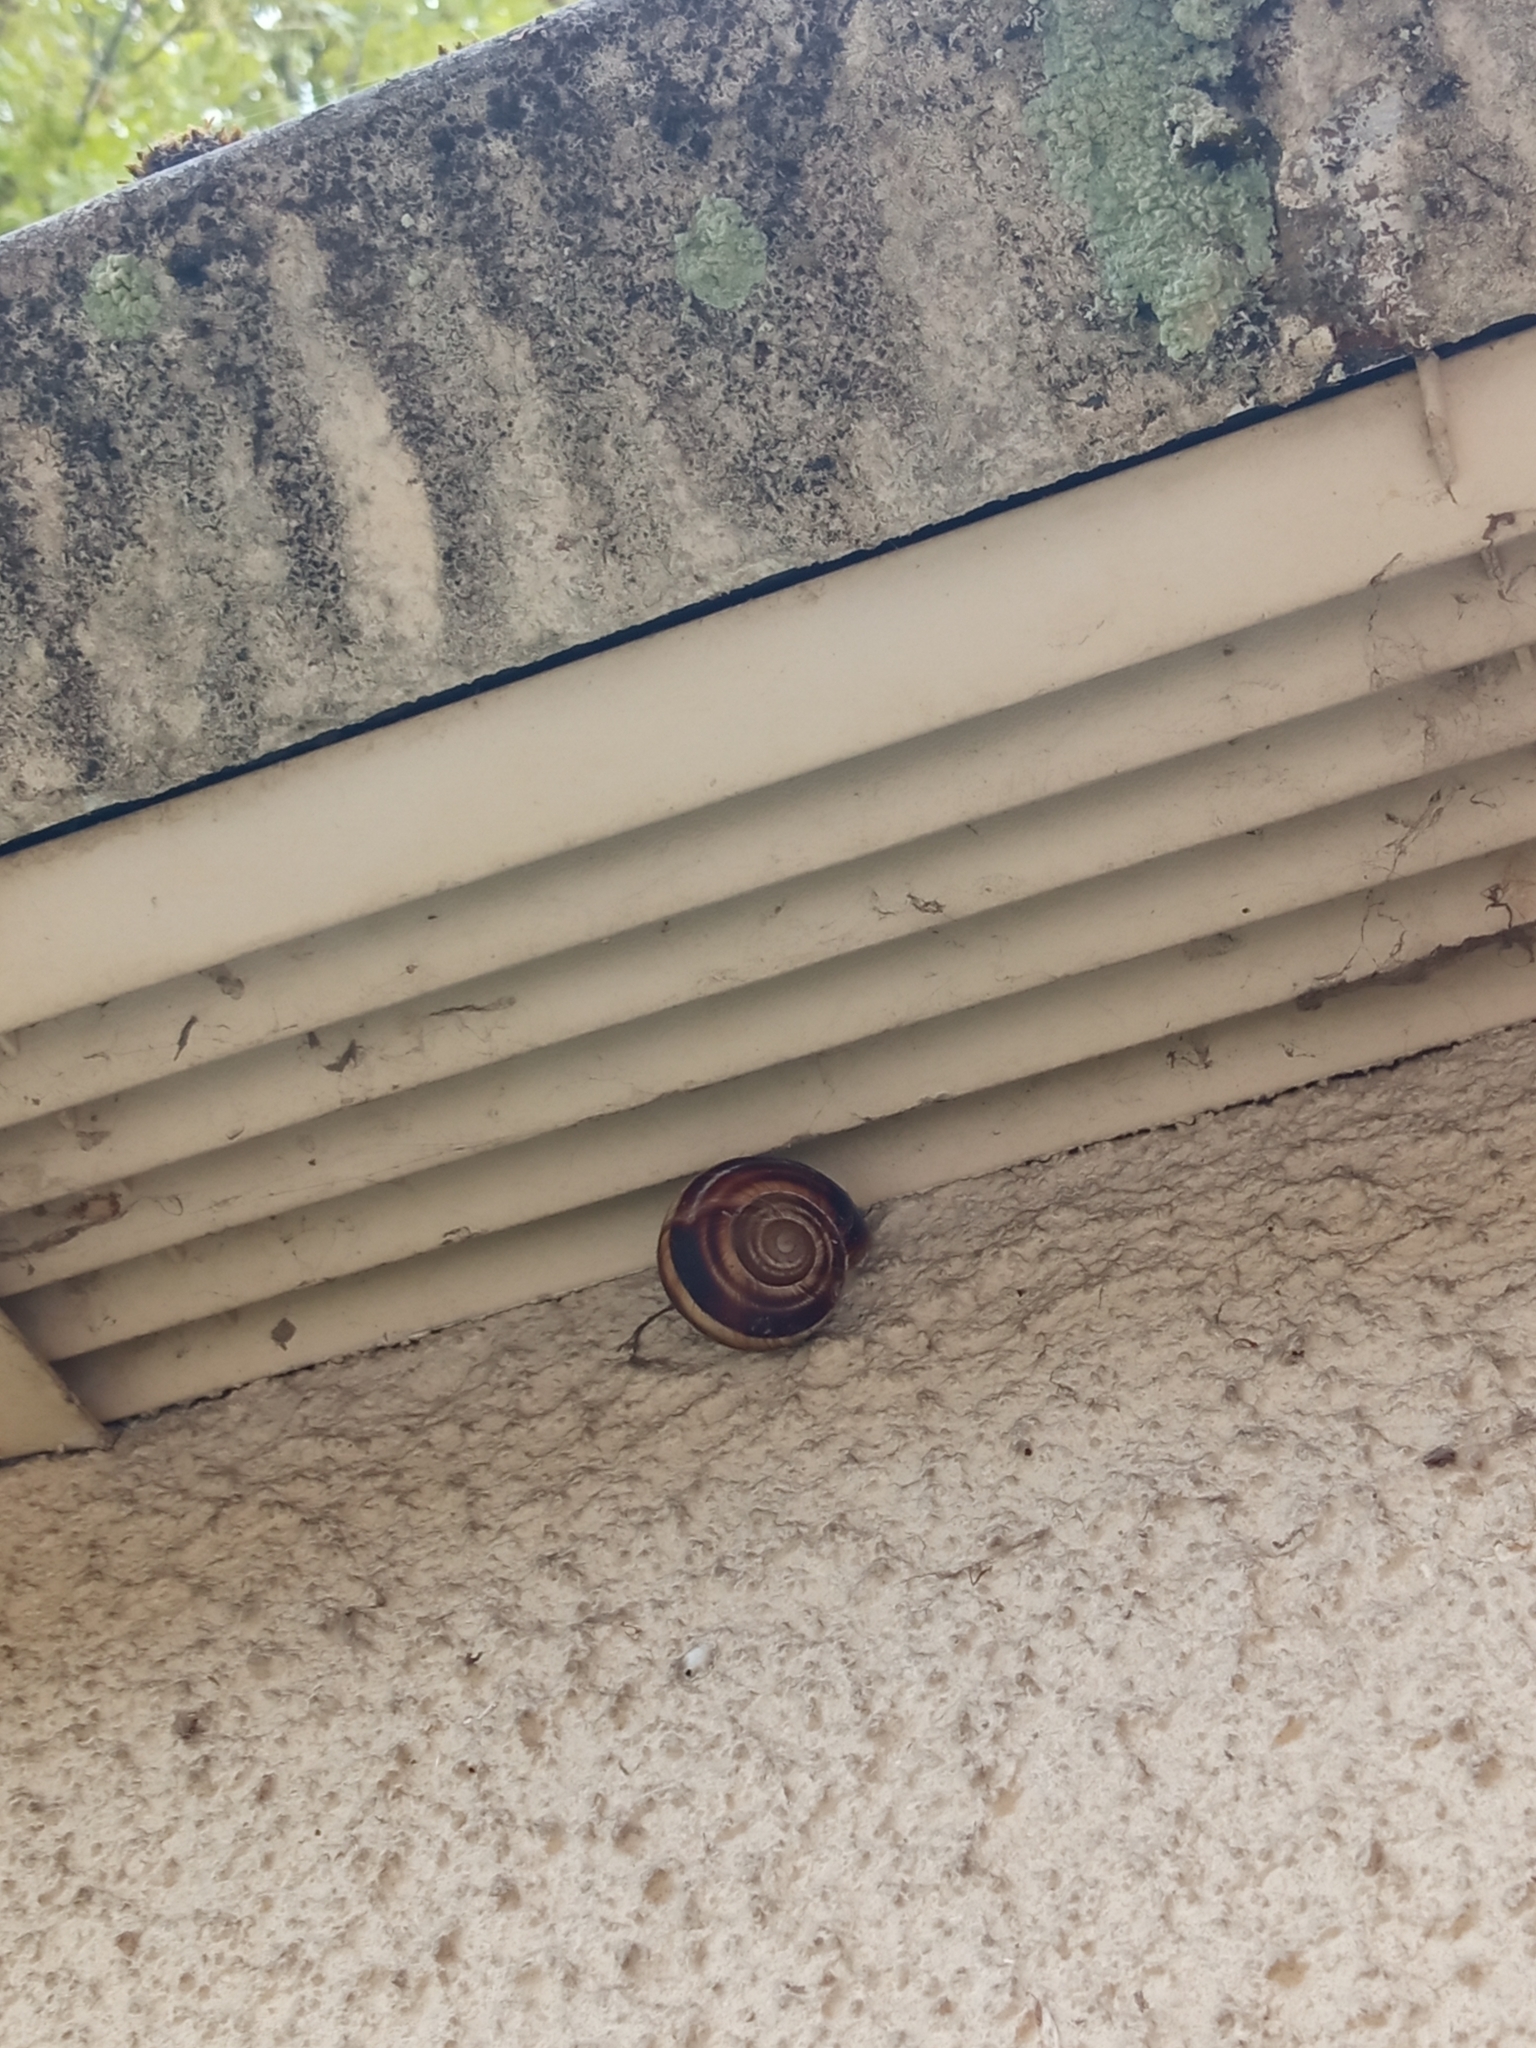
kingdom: Animalia
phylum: Mollusca
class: Gastropoda
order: Stylommatophora
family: Helicidae
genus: Helix
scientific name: Helix lucorum
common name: Turkish snail
